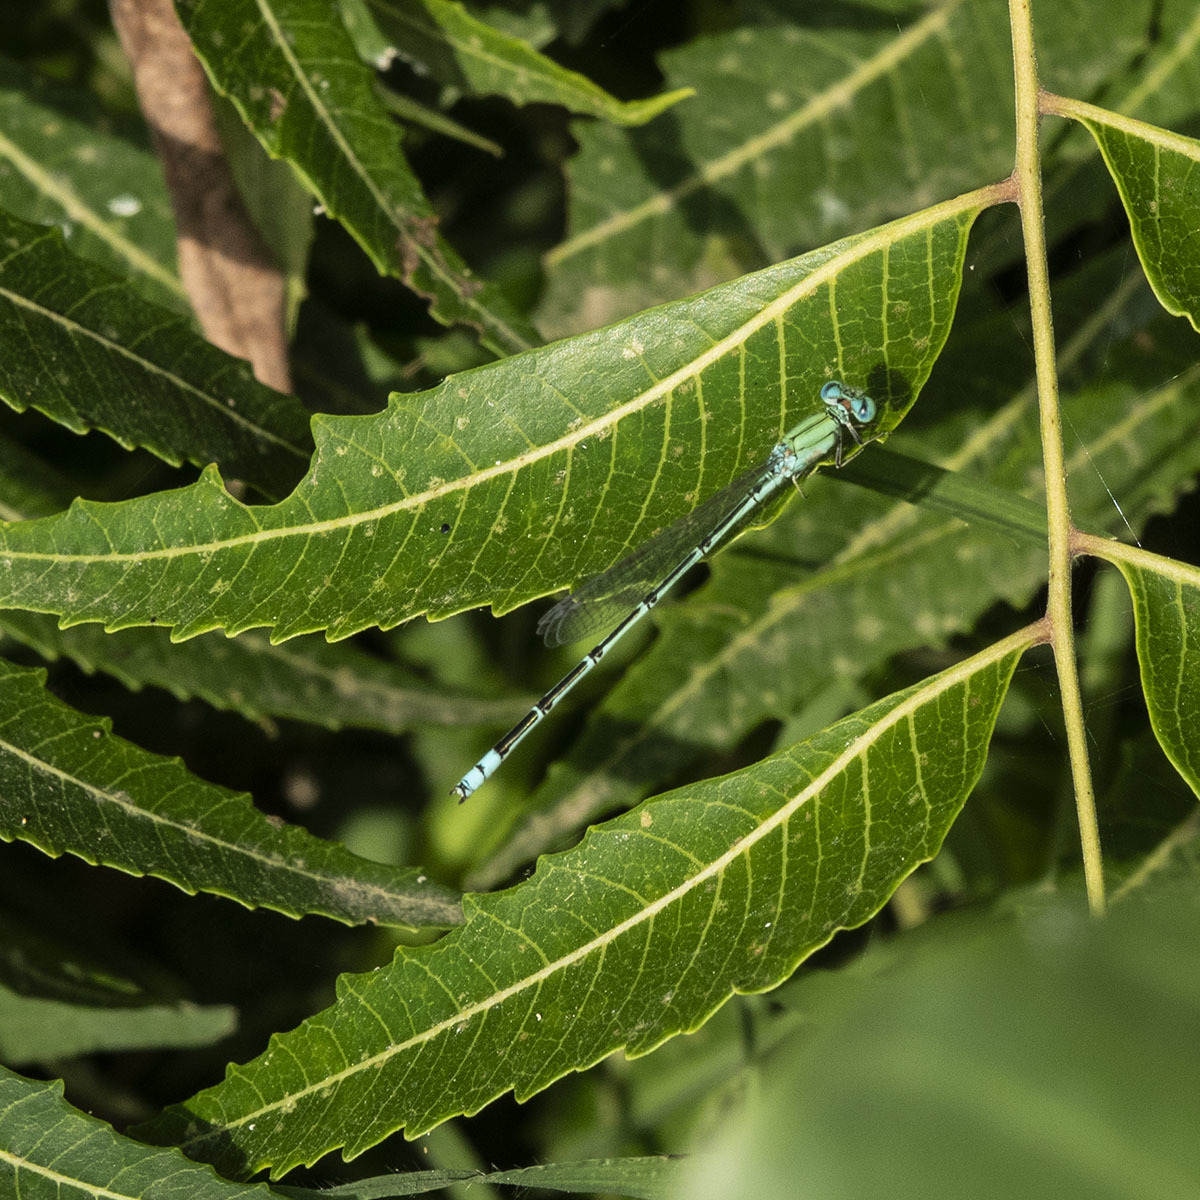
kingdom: Animalia
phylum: Arthropoda
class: Insecta
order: Odonata
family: Coenagrionidae
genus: Pseudagrion
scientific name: Pseudagrion decorum
